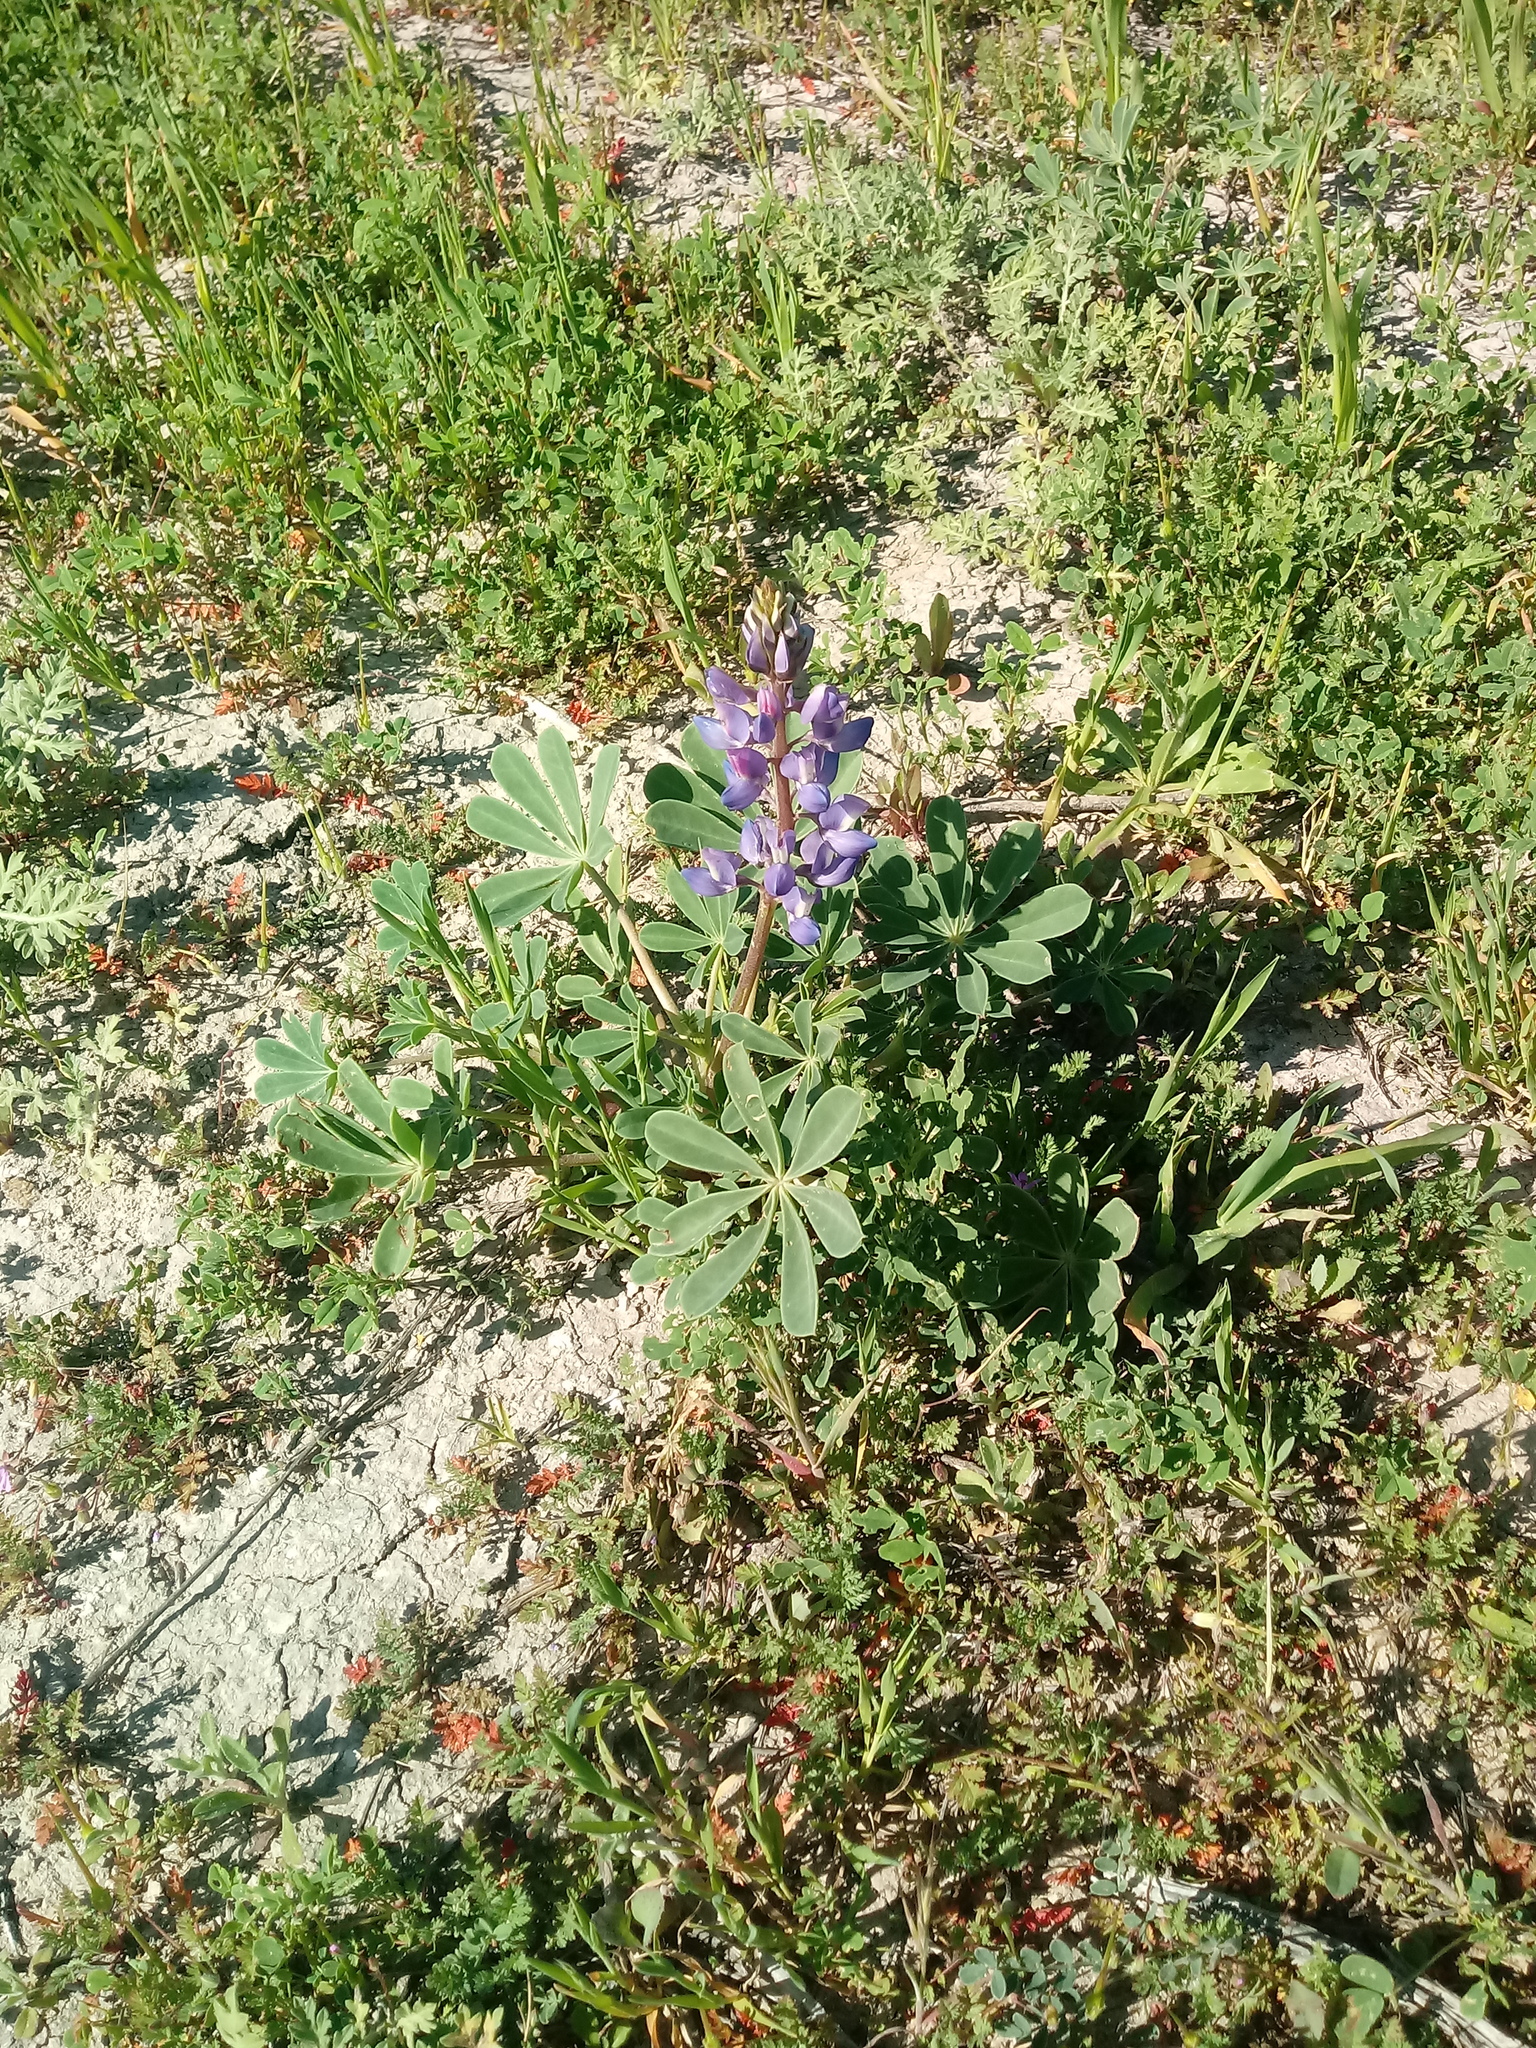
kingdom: Plantae
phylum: Tracheophyta
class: Magnoliopsida
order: Fabales
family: Fabaceae
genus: Lupinus
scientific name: Lupinus succulentus
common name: Arroyo lupine
